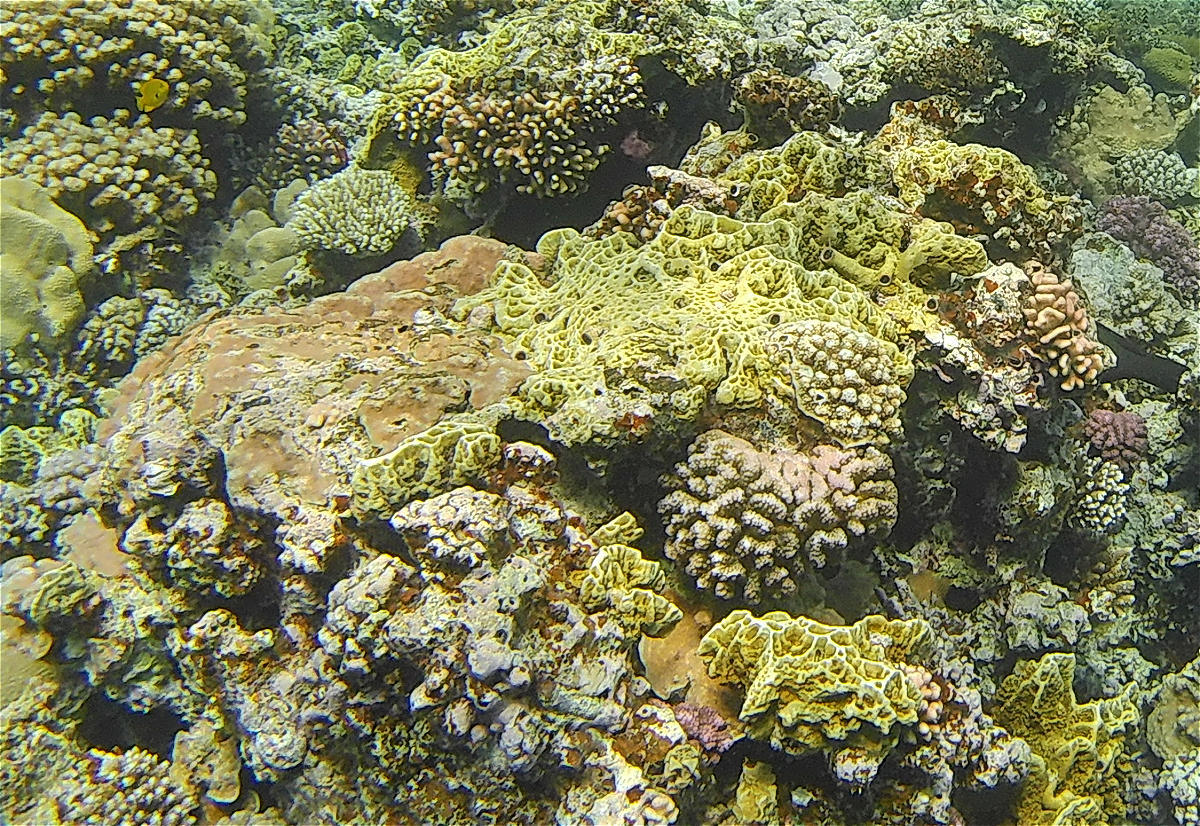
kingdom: Animalia
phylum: Cnidaria
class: Hydrozoa
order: Anthoathecata
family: Milleporidae
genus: Millepora
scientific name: Millepora platyphylla
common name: Sheet fire coral
